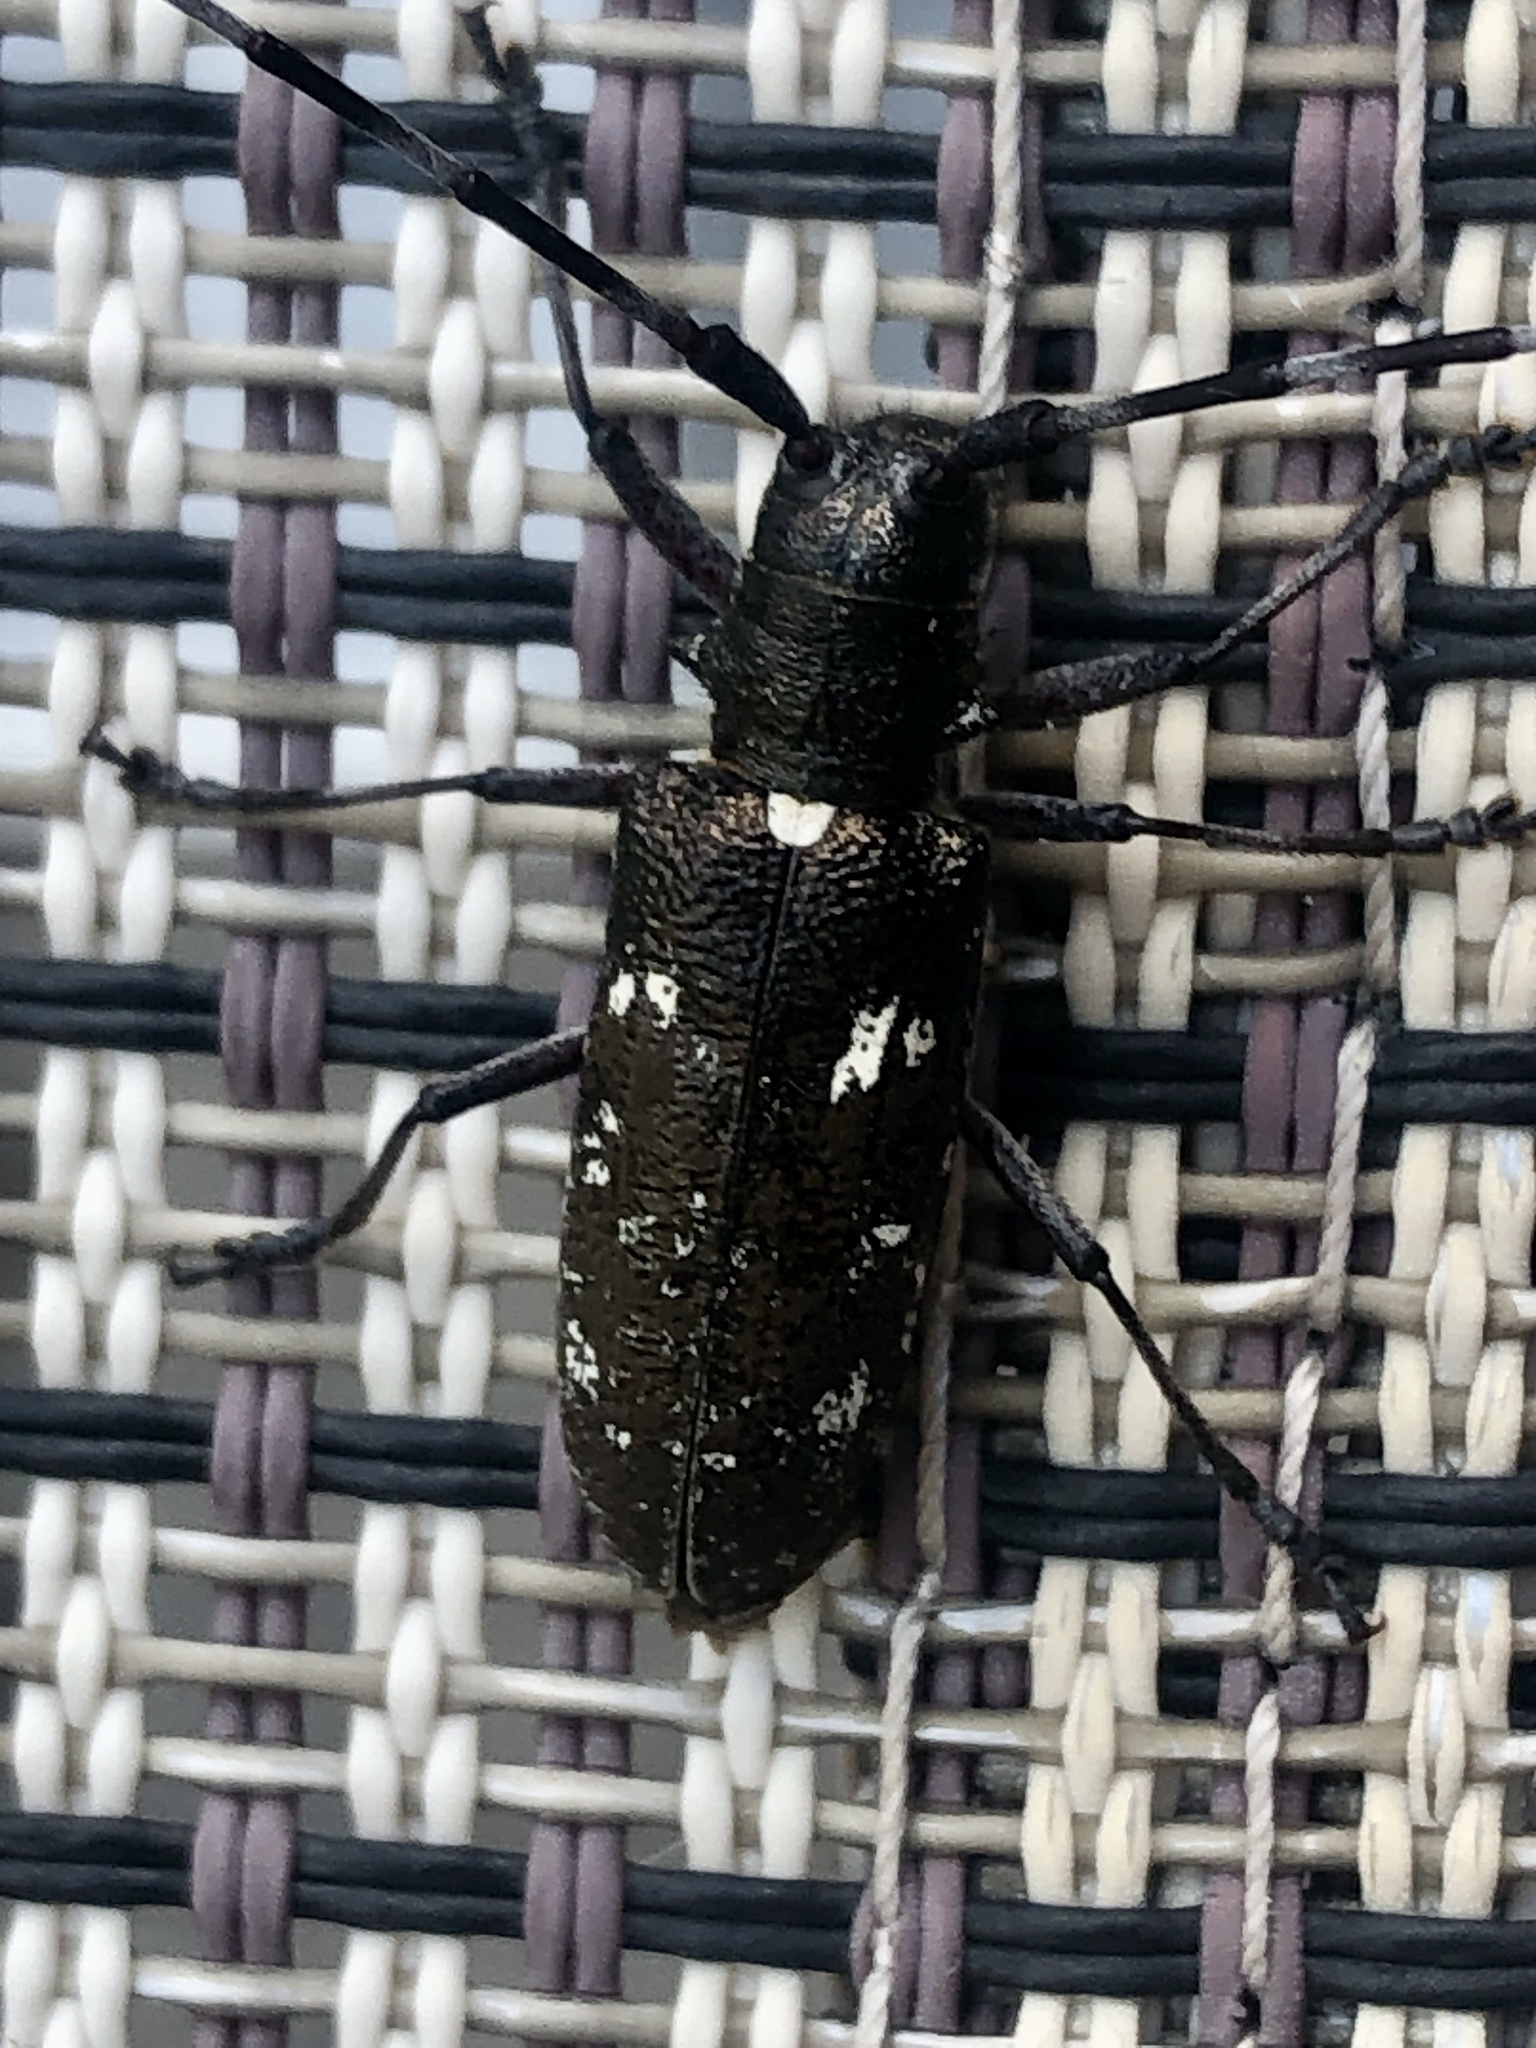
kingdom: Animalia
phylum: Arthropoda
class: Insecta
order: Coleoptera
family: Cerambycidae
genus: Monochamus
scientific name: Monochamus scutellatus
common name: White-spotted sawyer beetle
